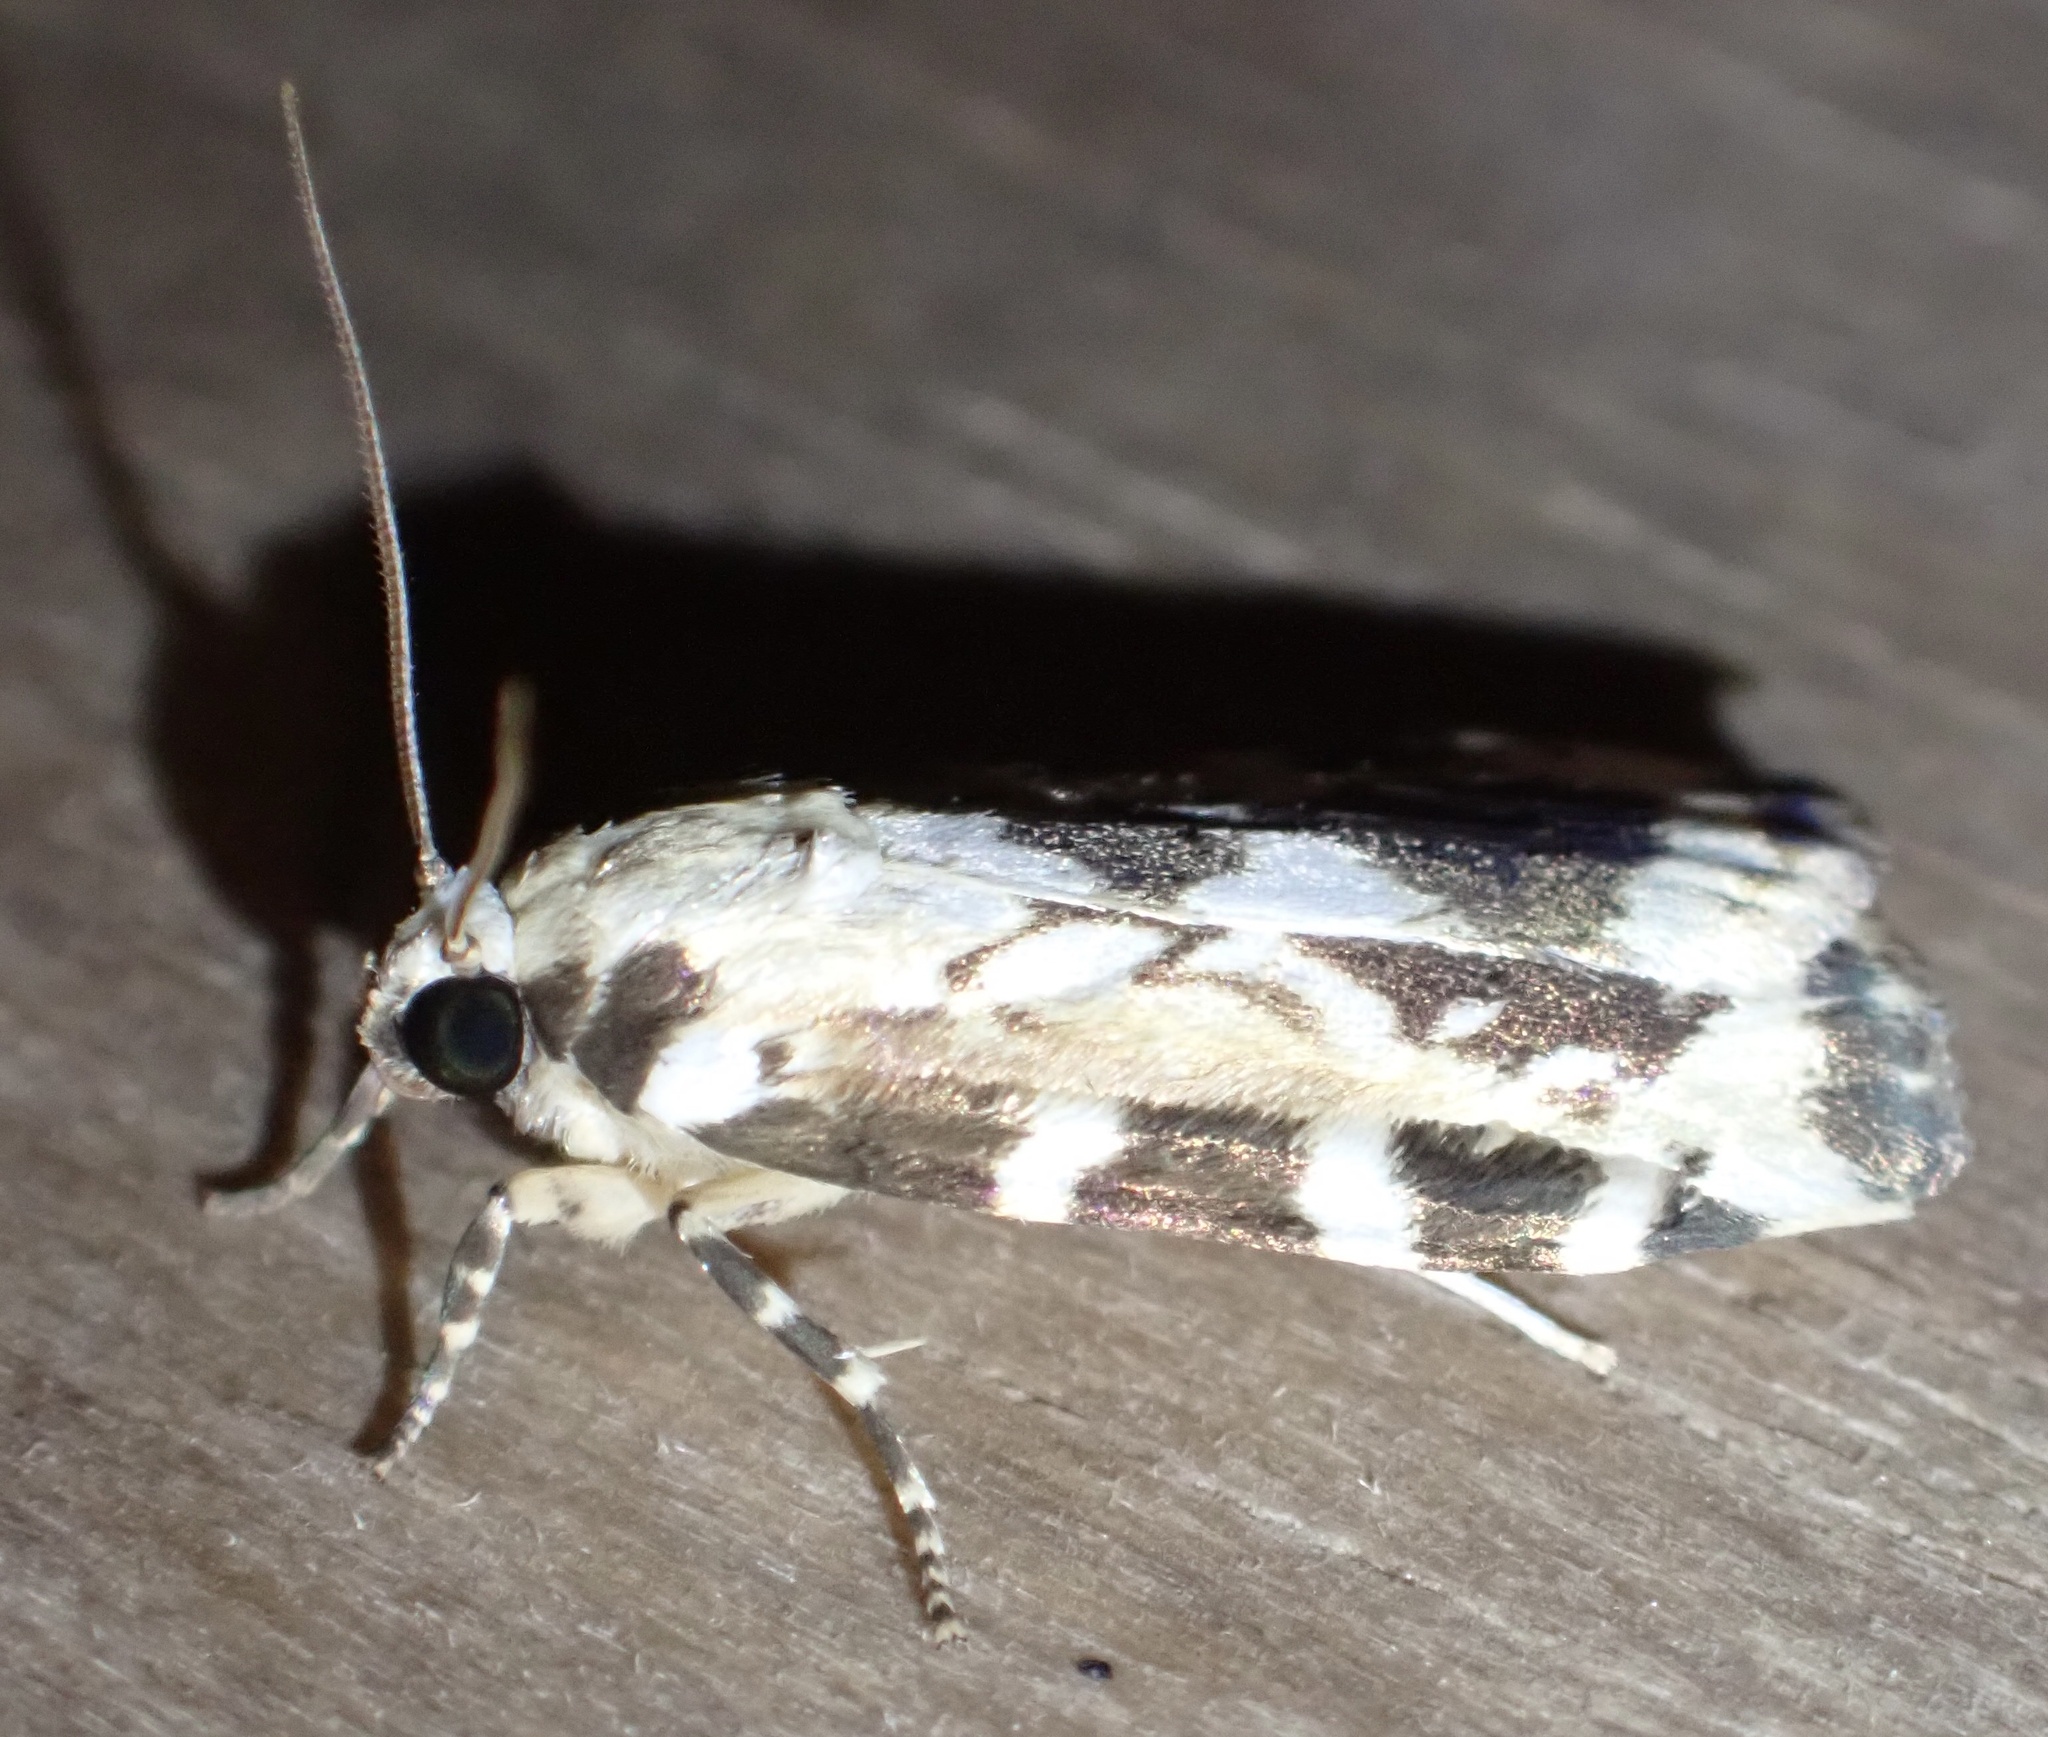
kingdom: Animalia
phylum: Arthropoda
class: Insecta
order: Lepidoptera
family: Erebidae
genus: Cyana
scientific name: Cyana nigroplagata
